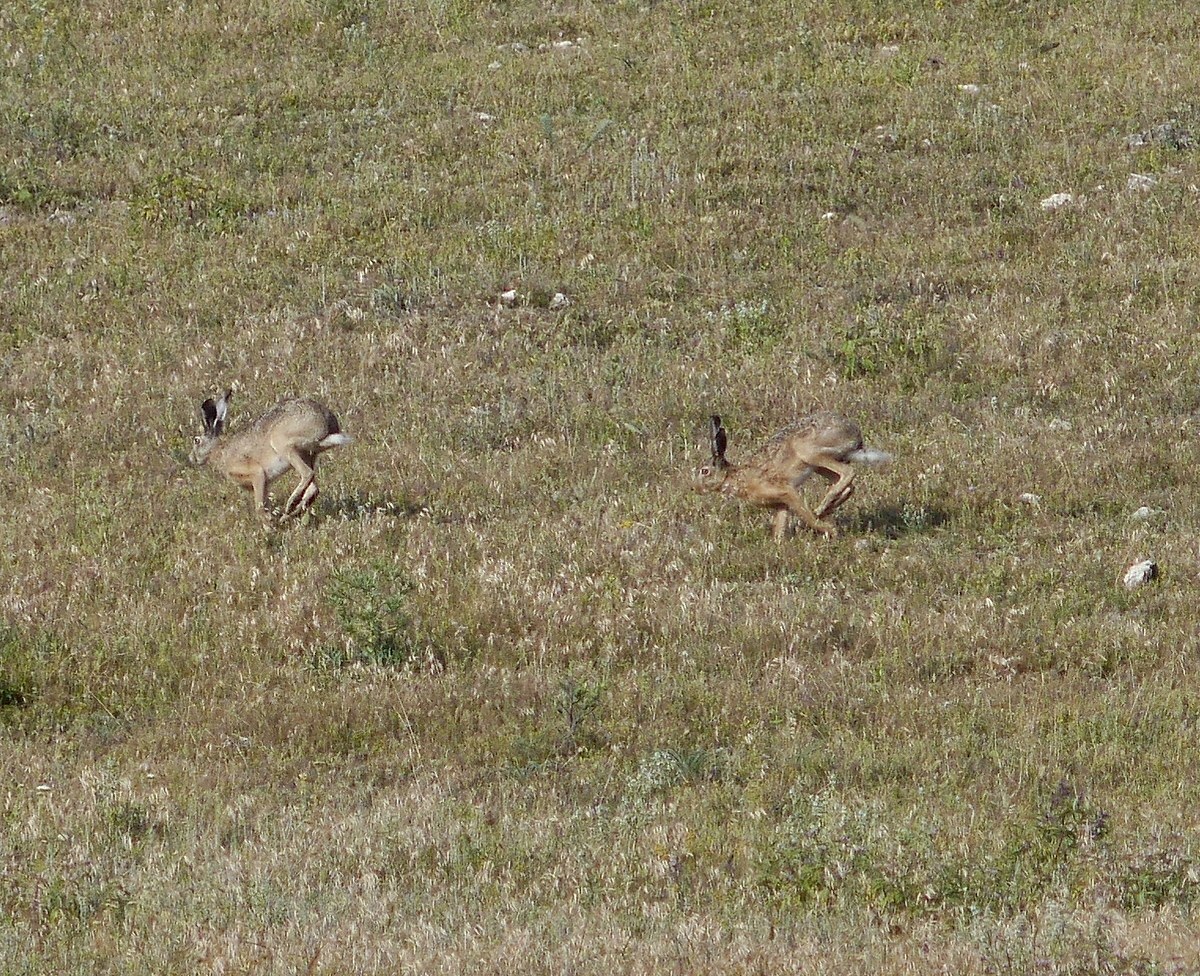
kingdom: Animalia
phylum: Chordata
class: Mammalia
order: Lagomorpha
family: Leporidae
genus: Lepus
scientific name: Lepus europaeus
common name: European hare
